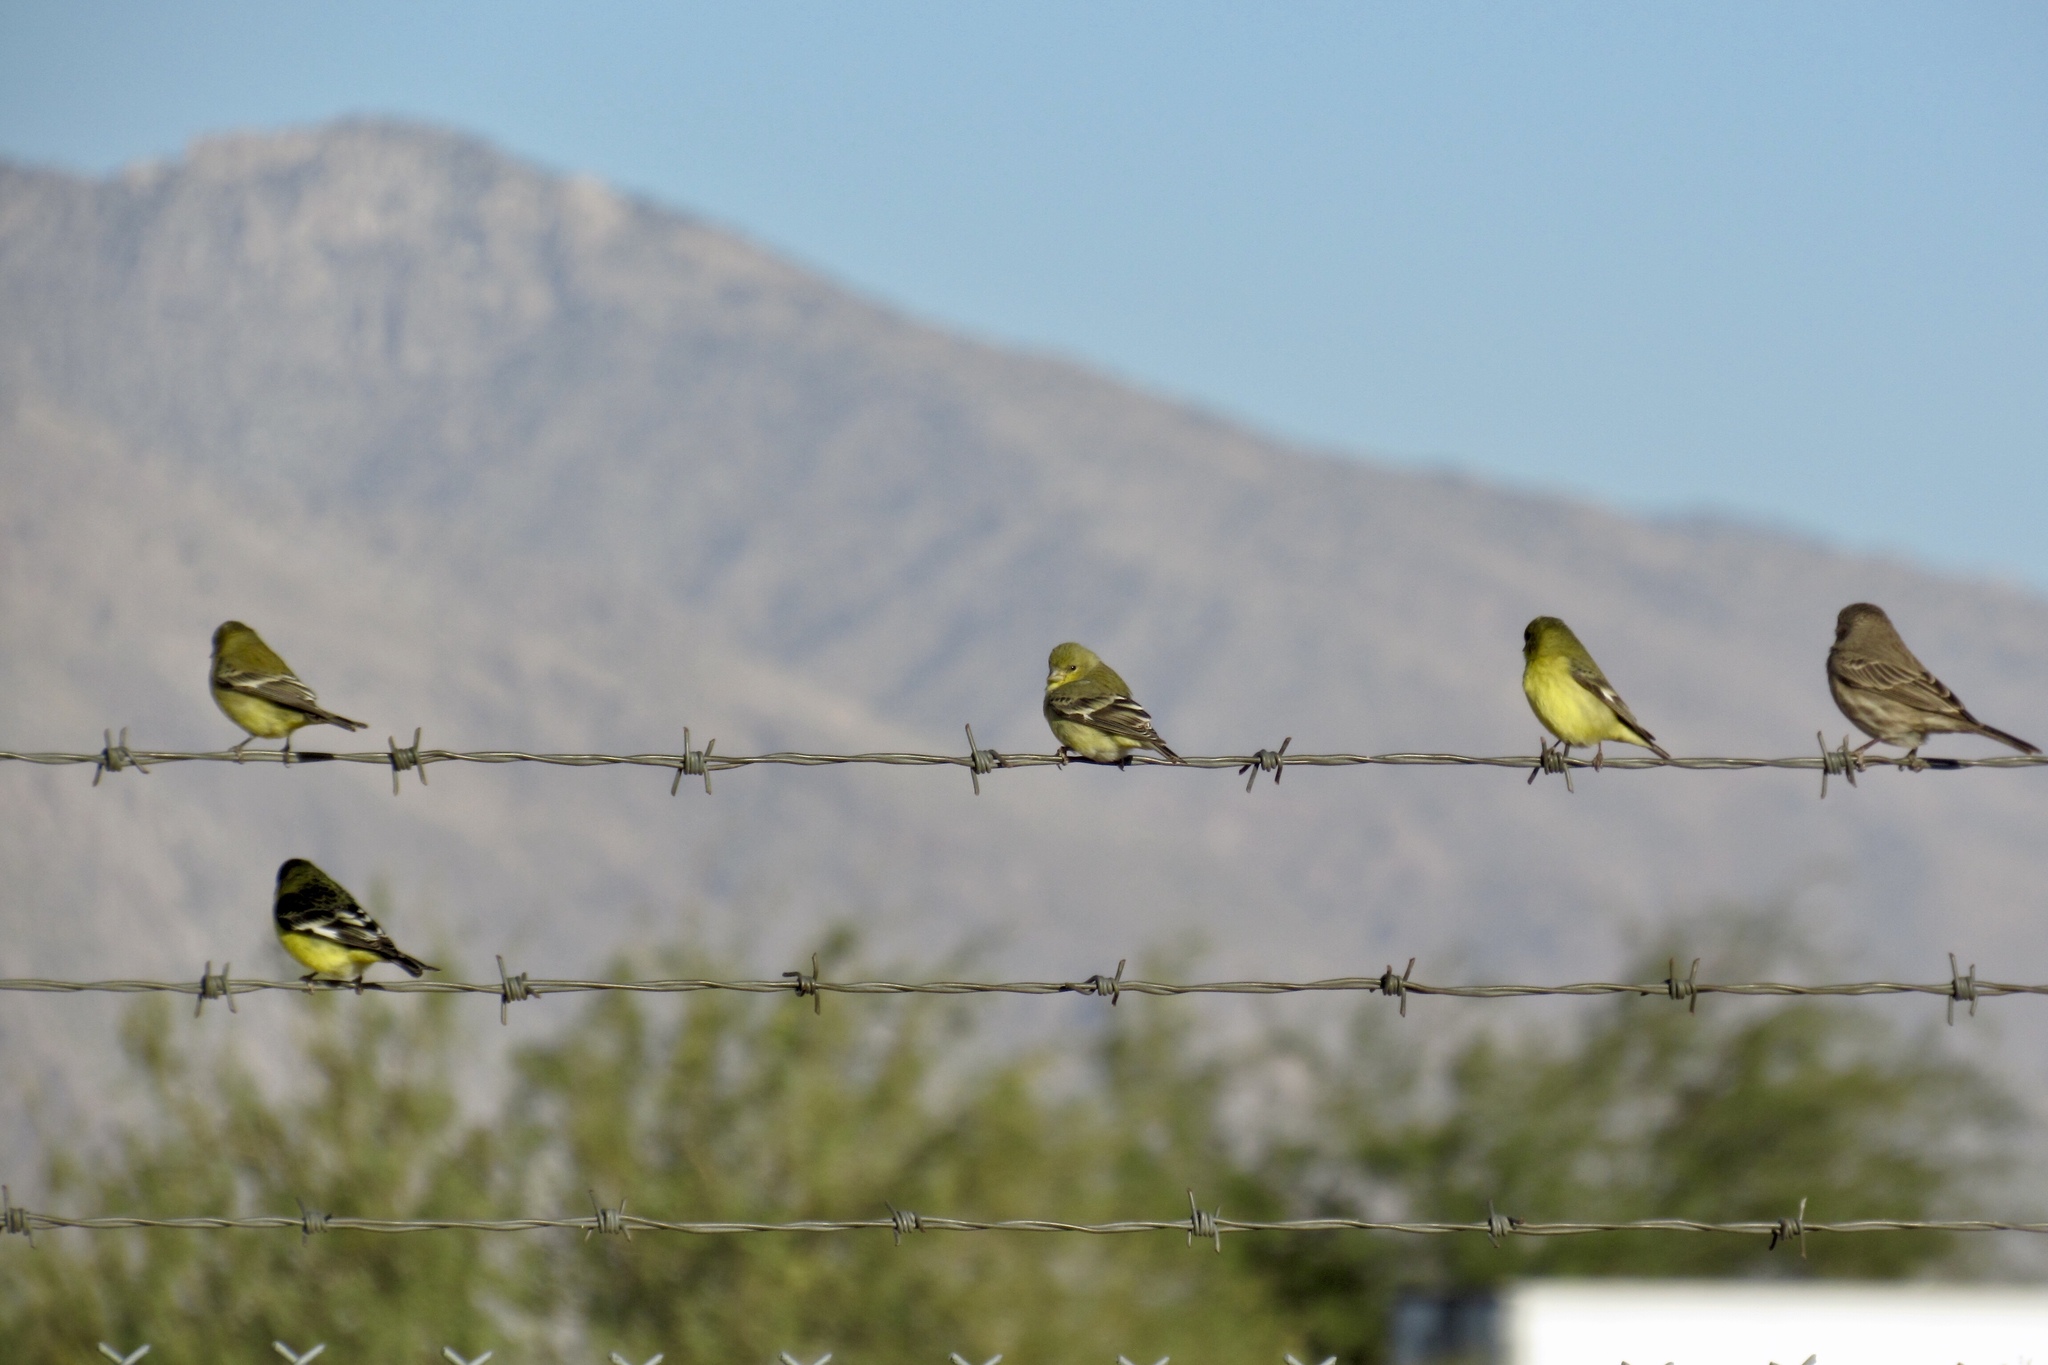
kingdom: Animalia
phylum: Chordata
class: Aves
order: Passeriformes
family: Fringillidae
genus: Spinus
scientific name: Spinus psaltria
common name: Lesser goldfinch
